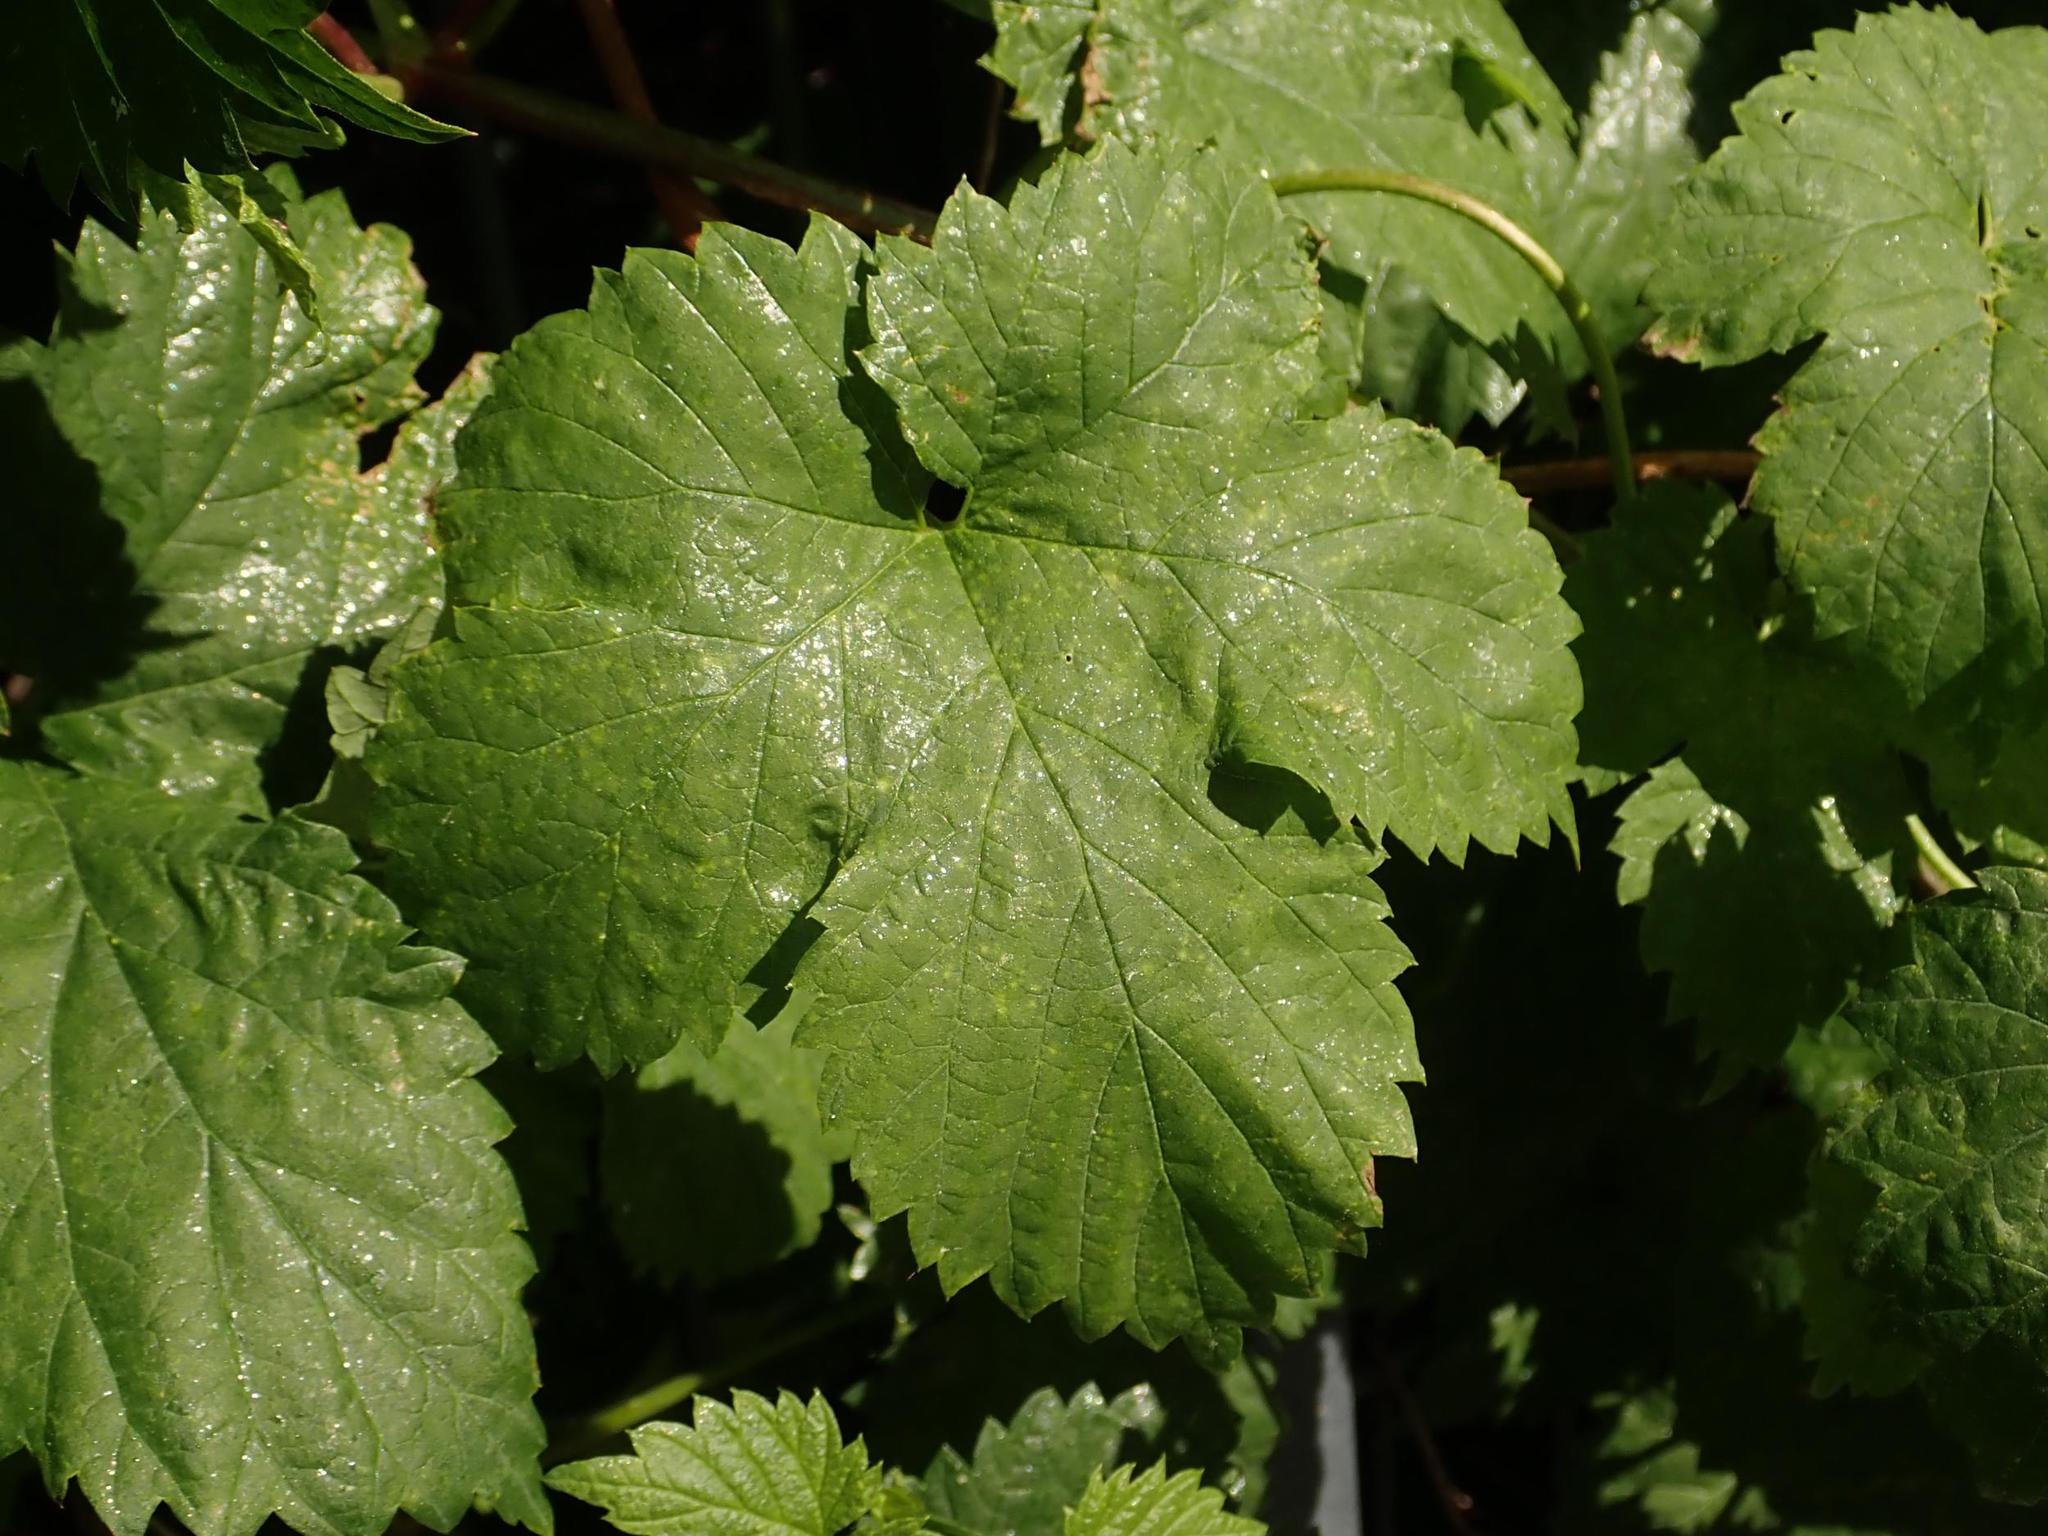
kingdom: Plantae
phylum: Tracheophyta
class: Magnoliopsida
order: Rosales
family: Cannabaceae
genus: Humulus
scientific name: Humulus lupulus
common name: Hop
